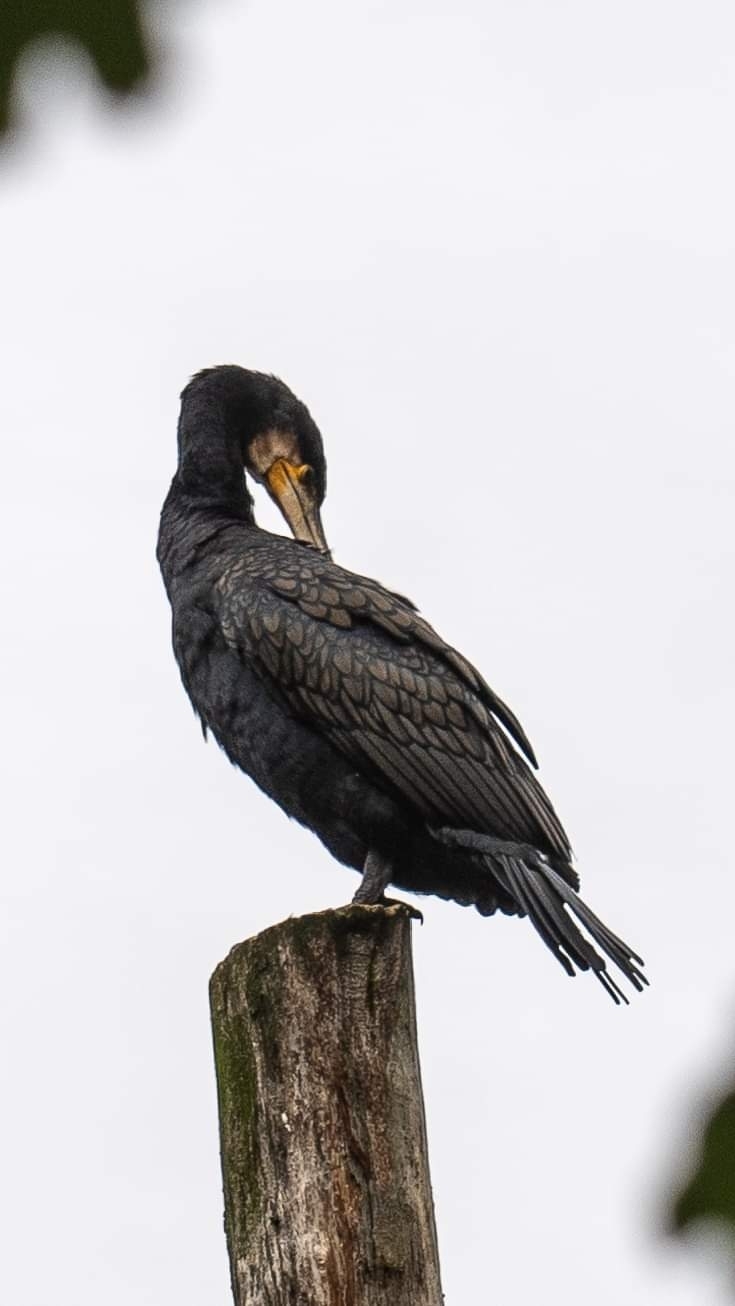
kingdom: Animalia
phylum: Chordata
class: Aves
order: Suliformes
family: Phalacrocoracidae
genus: Phalacrocorax
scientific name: Phalacrocorax carbo
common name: Great cormorant
